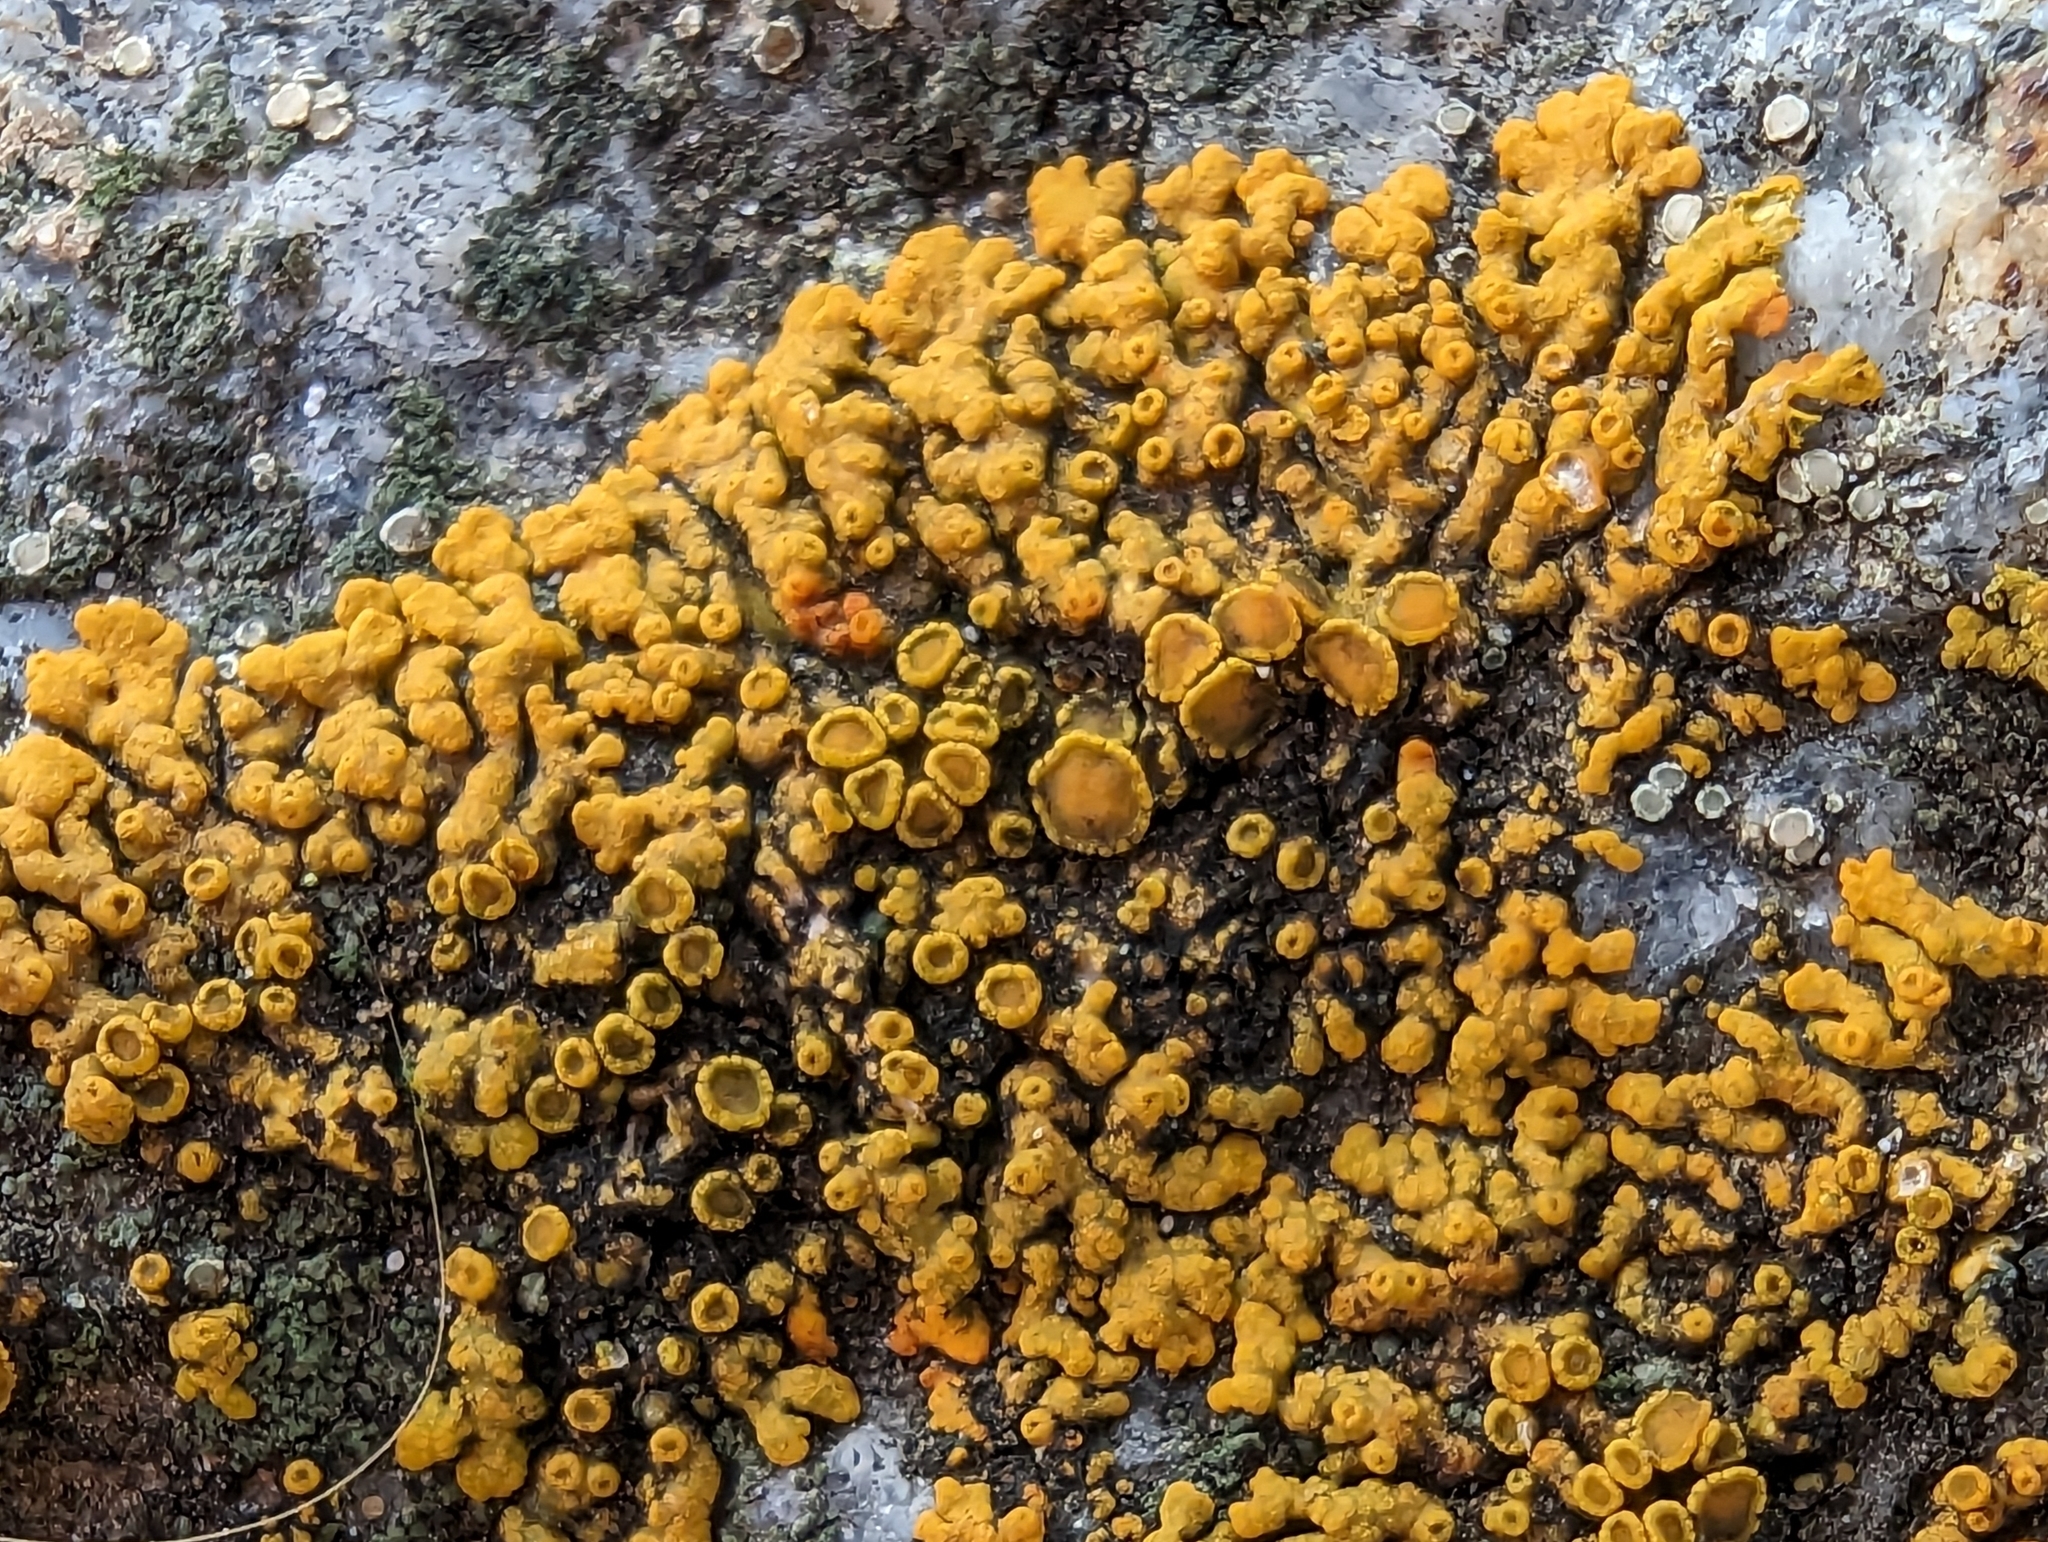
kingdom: Fungi
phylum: Ascomycota
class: Lecanoromycetes
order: Teloschistales
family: Teloschistaceae
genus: Xanthoria
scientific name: Xanthoria elegans
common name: Elegant sunburst lichen
